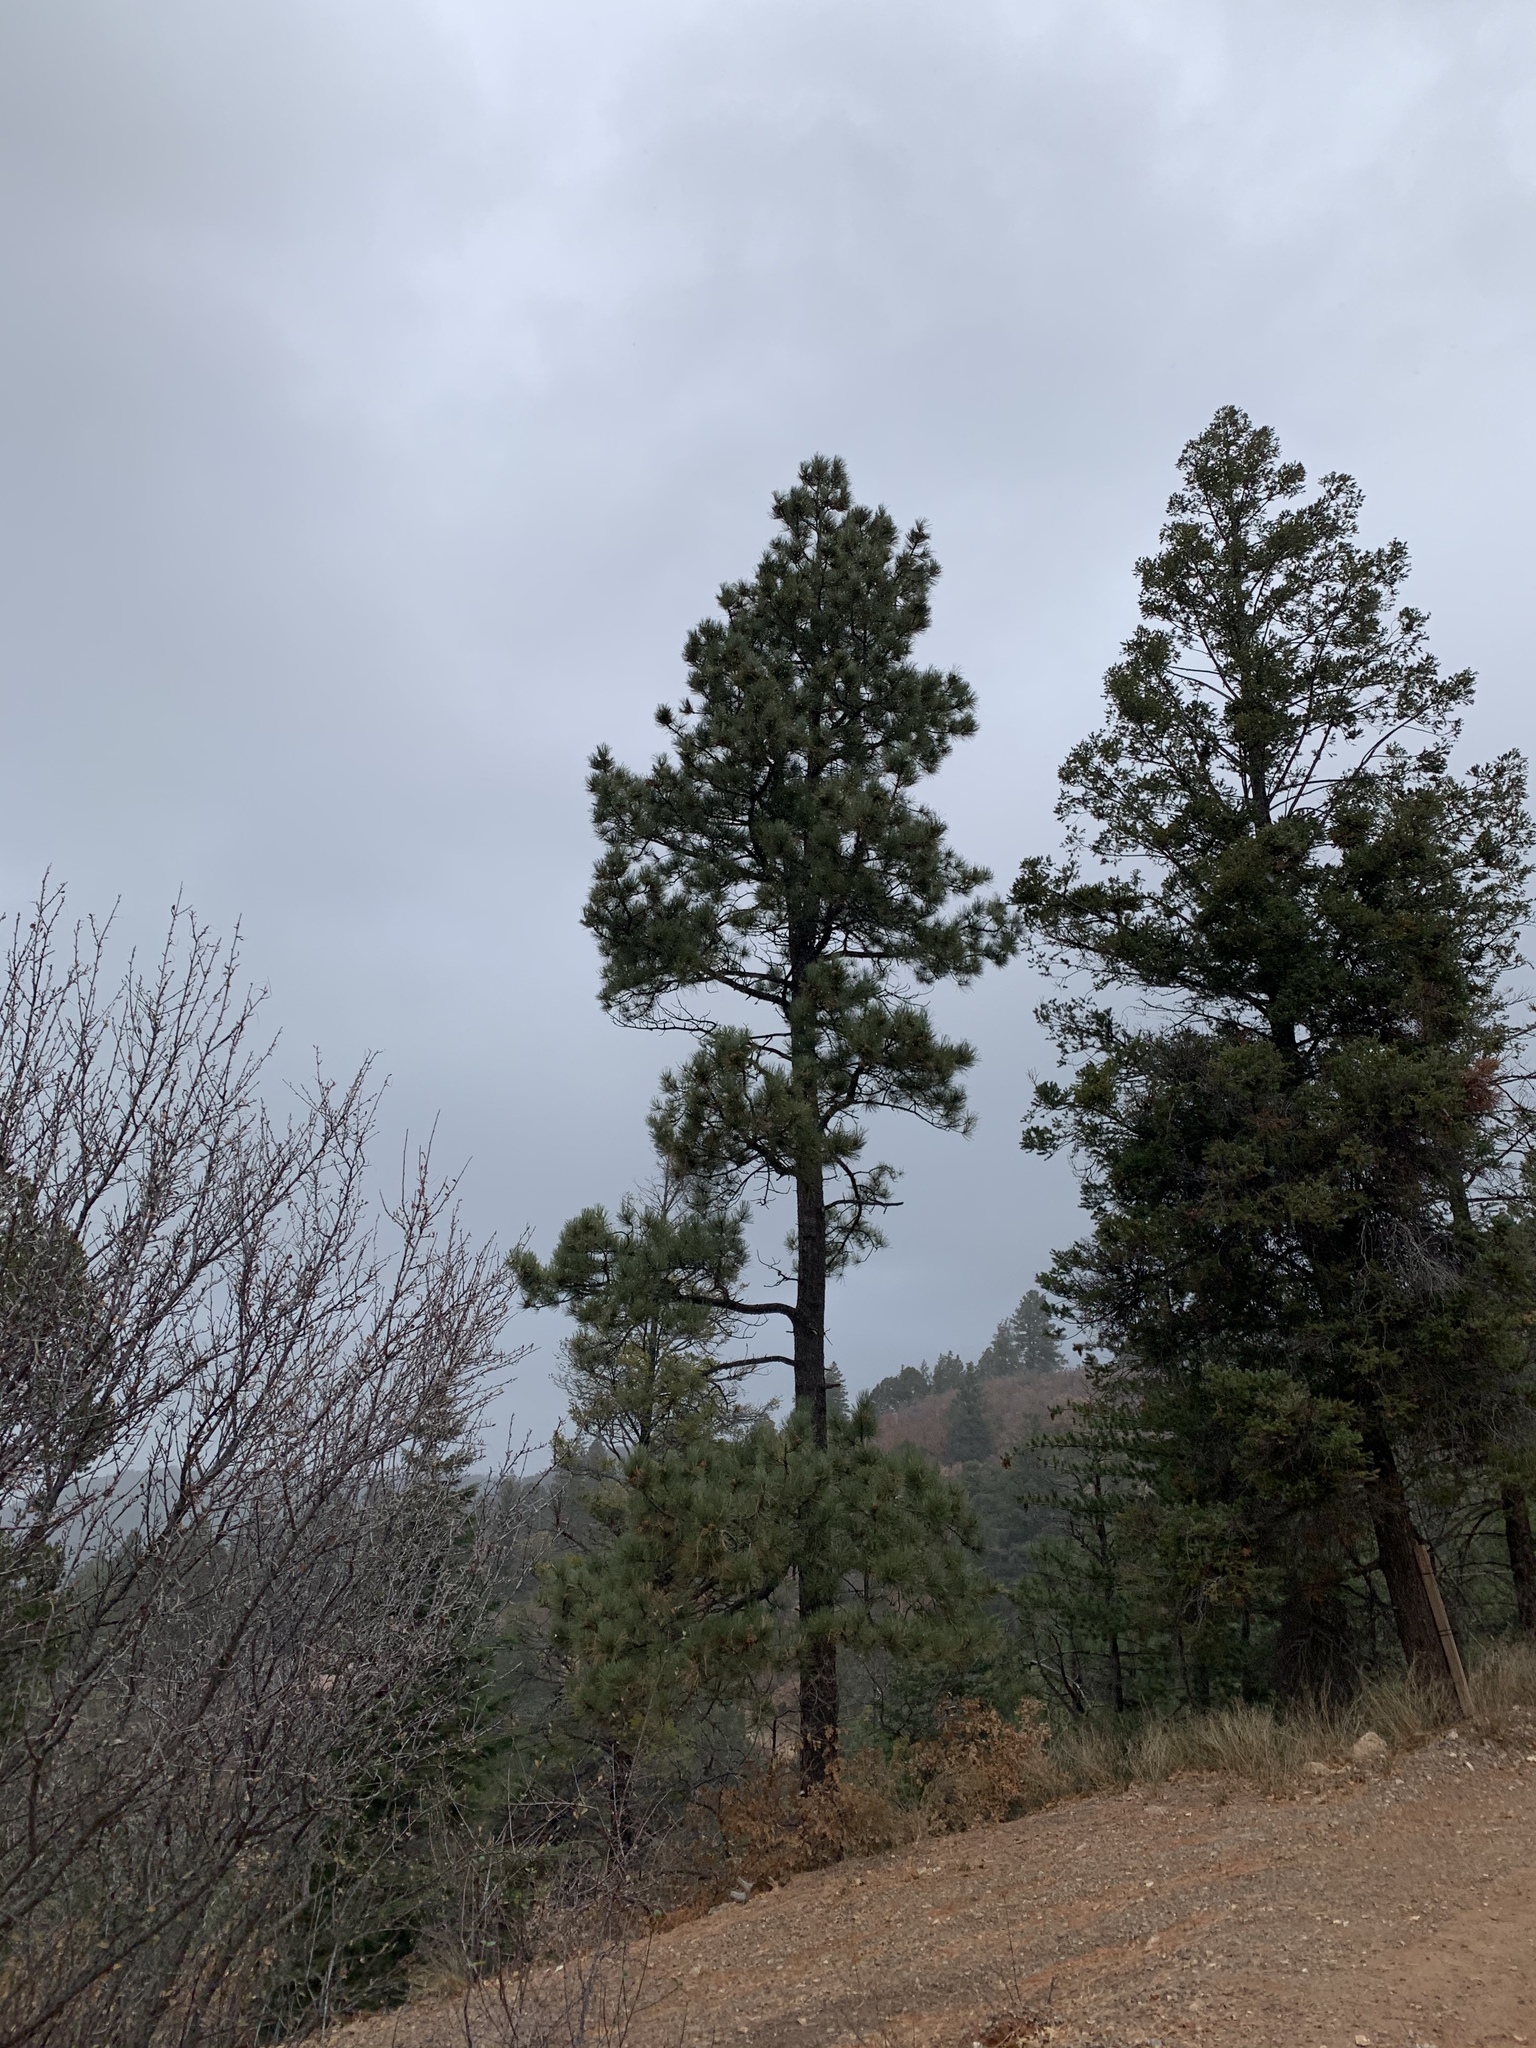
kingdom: Plantae
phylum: Tracheophyta
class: Pinopsida
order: Pinales
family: Pinaceae
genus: Pinus
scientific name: Pinus ponderosa
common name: Western yellow-pine
